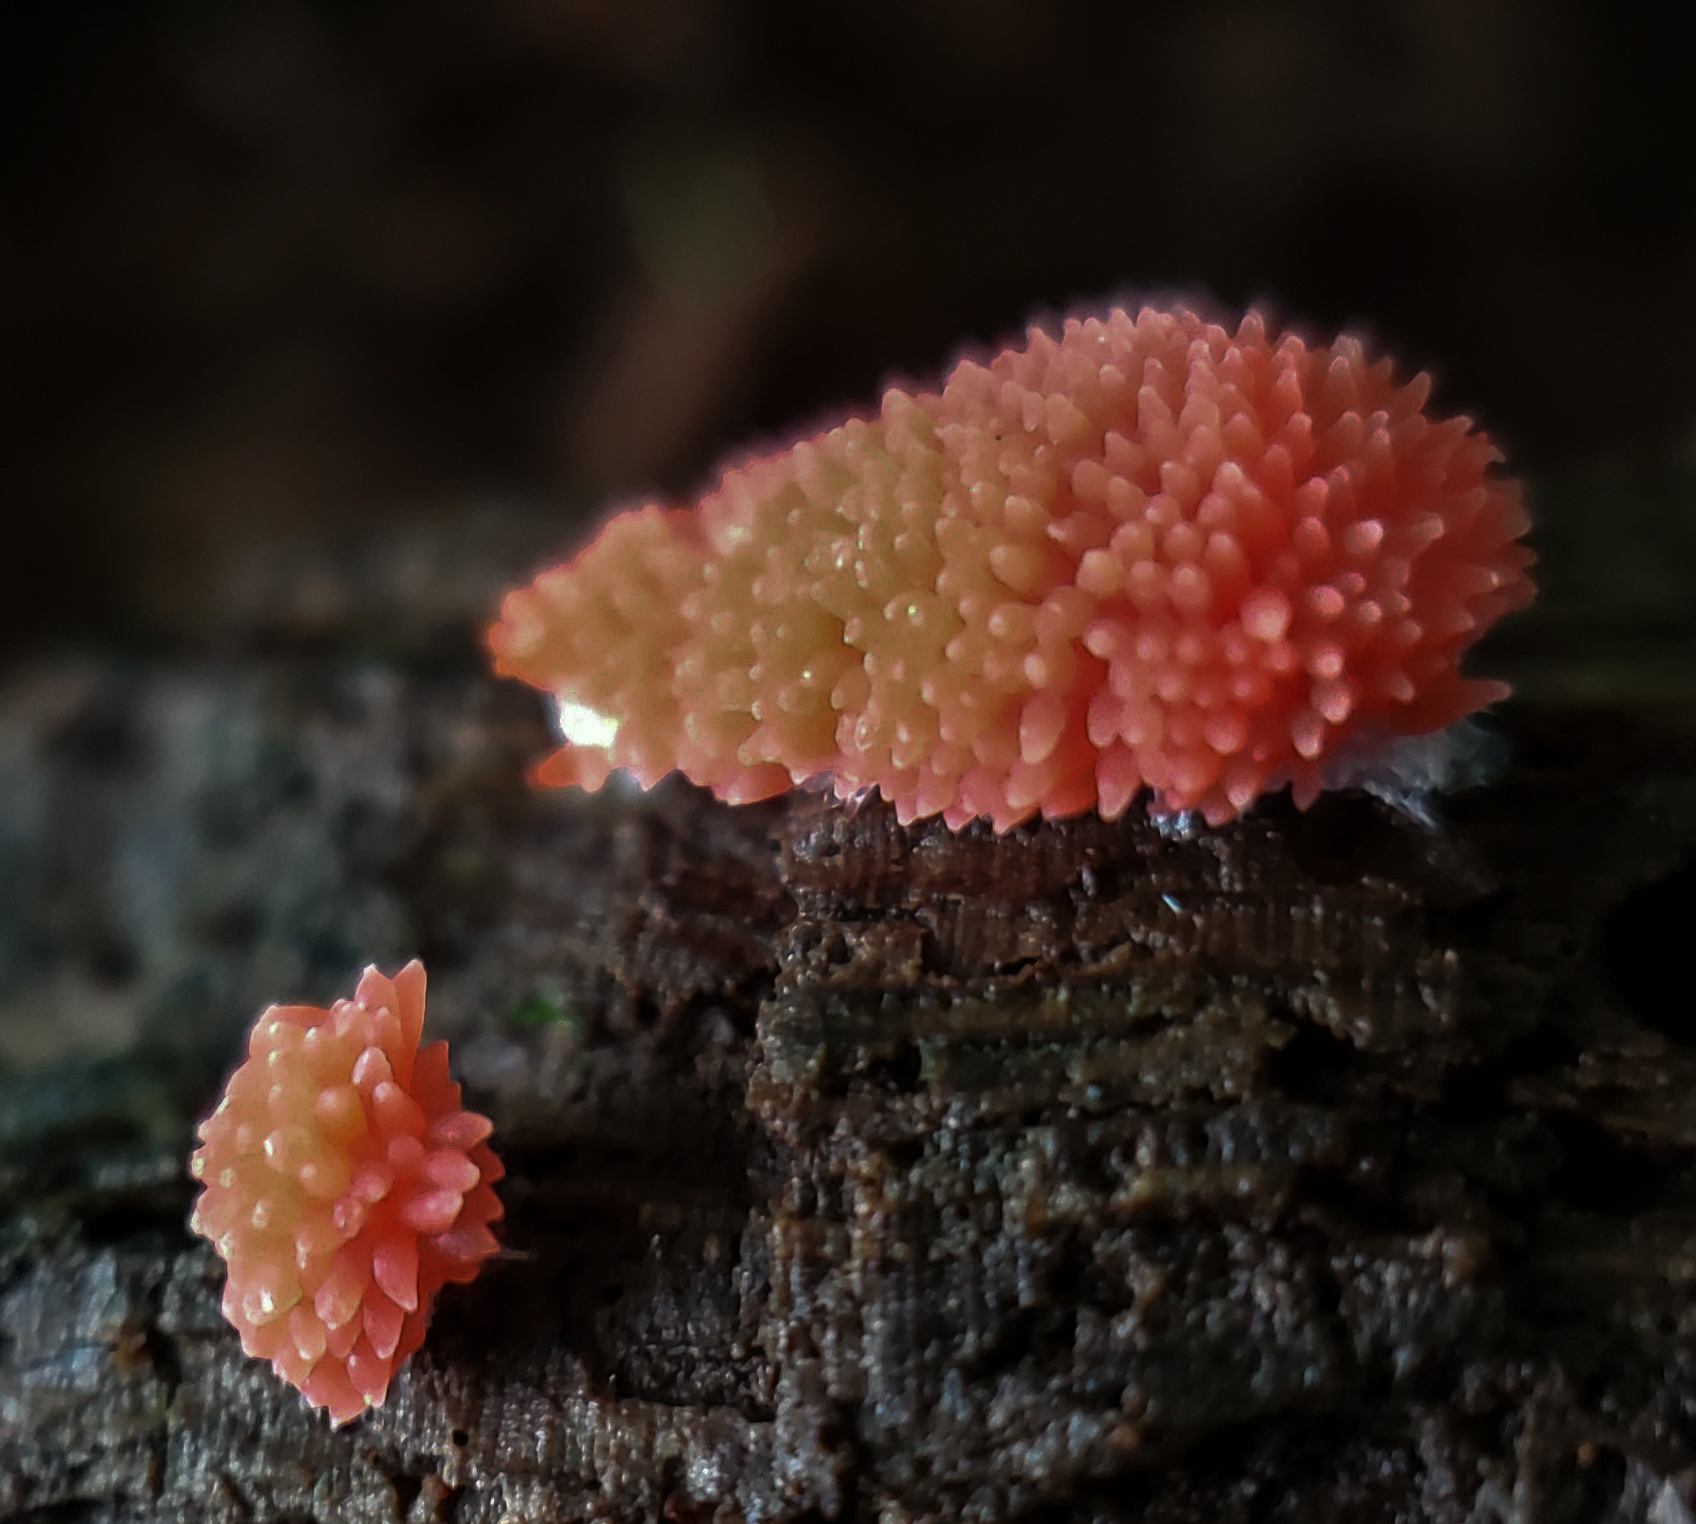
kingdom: Protozoa
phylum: Mycetozoa
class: Myxomycetes
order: Cribrariales
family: Tubiferaceae
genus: Tubifera
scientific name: Tubifera ferruginosa
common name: Red raspberry slime mold
